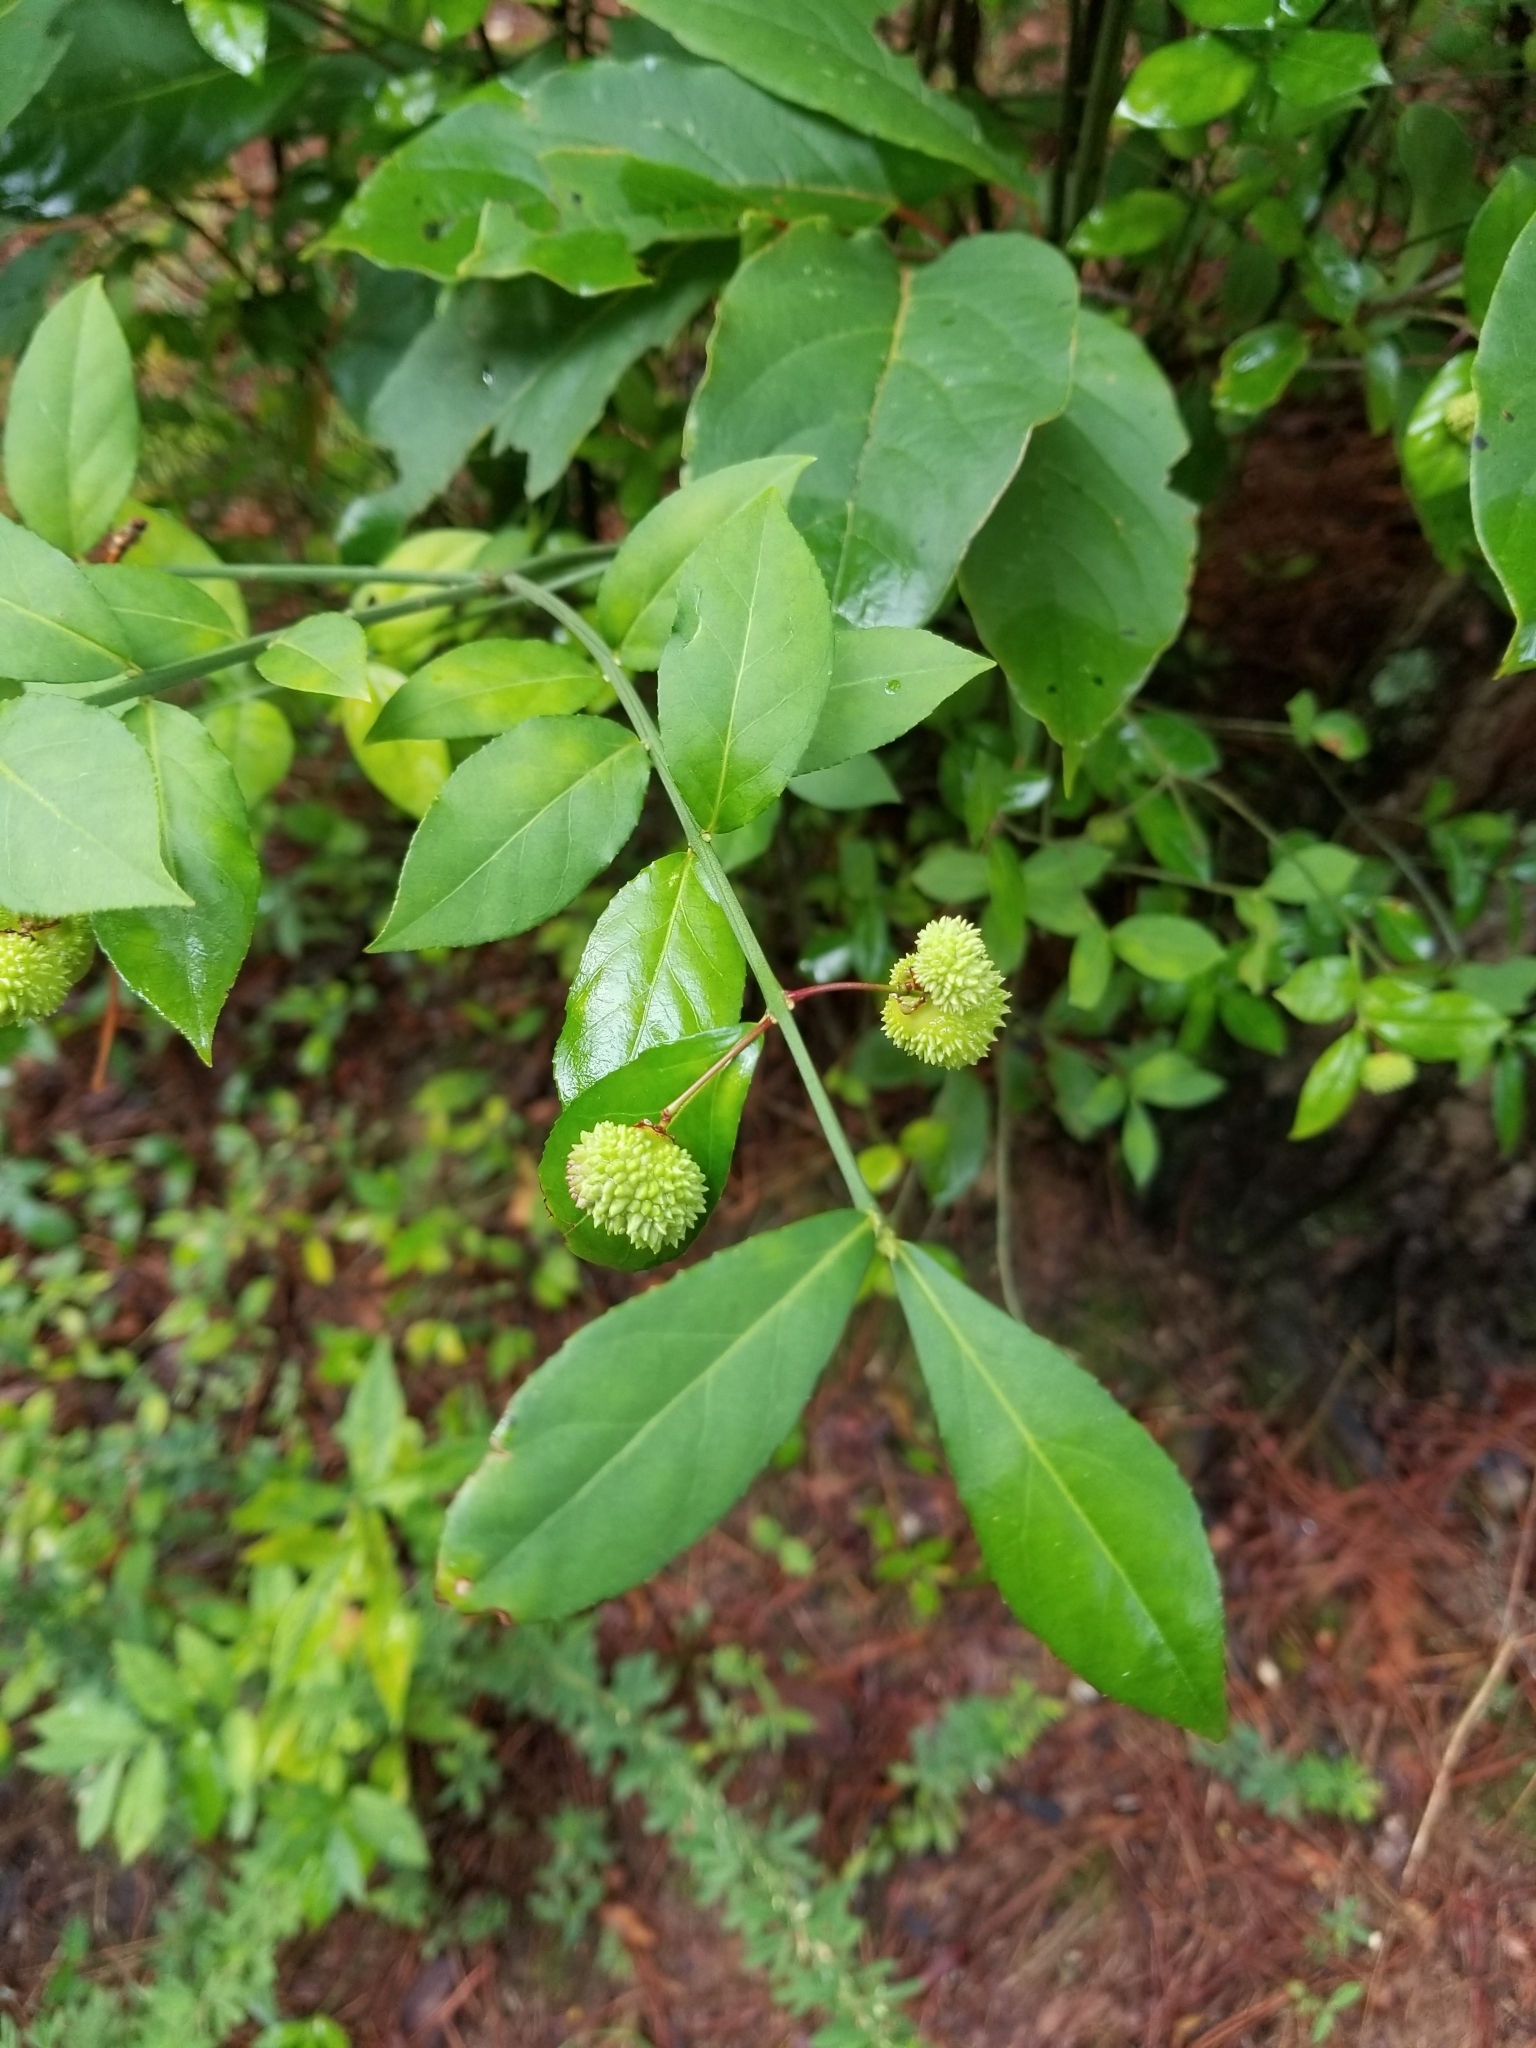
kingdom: Plantae
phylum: Tracheophyta
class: Magnoliopsida
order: Celastrales
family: Celastraceae
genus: Euonymus
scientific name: Euonymus americanus
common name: Bursting-heart
